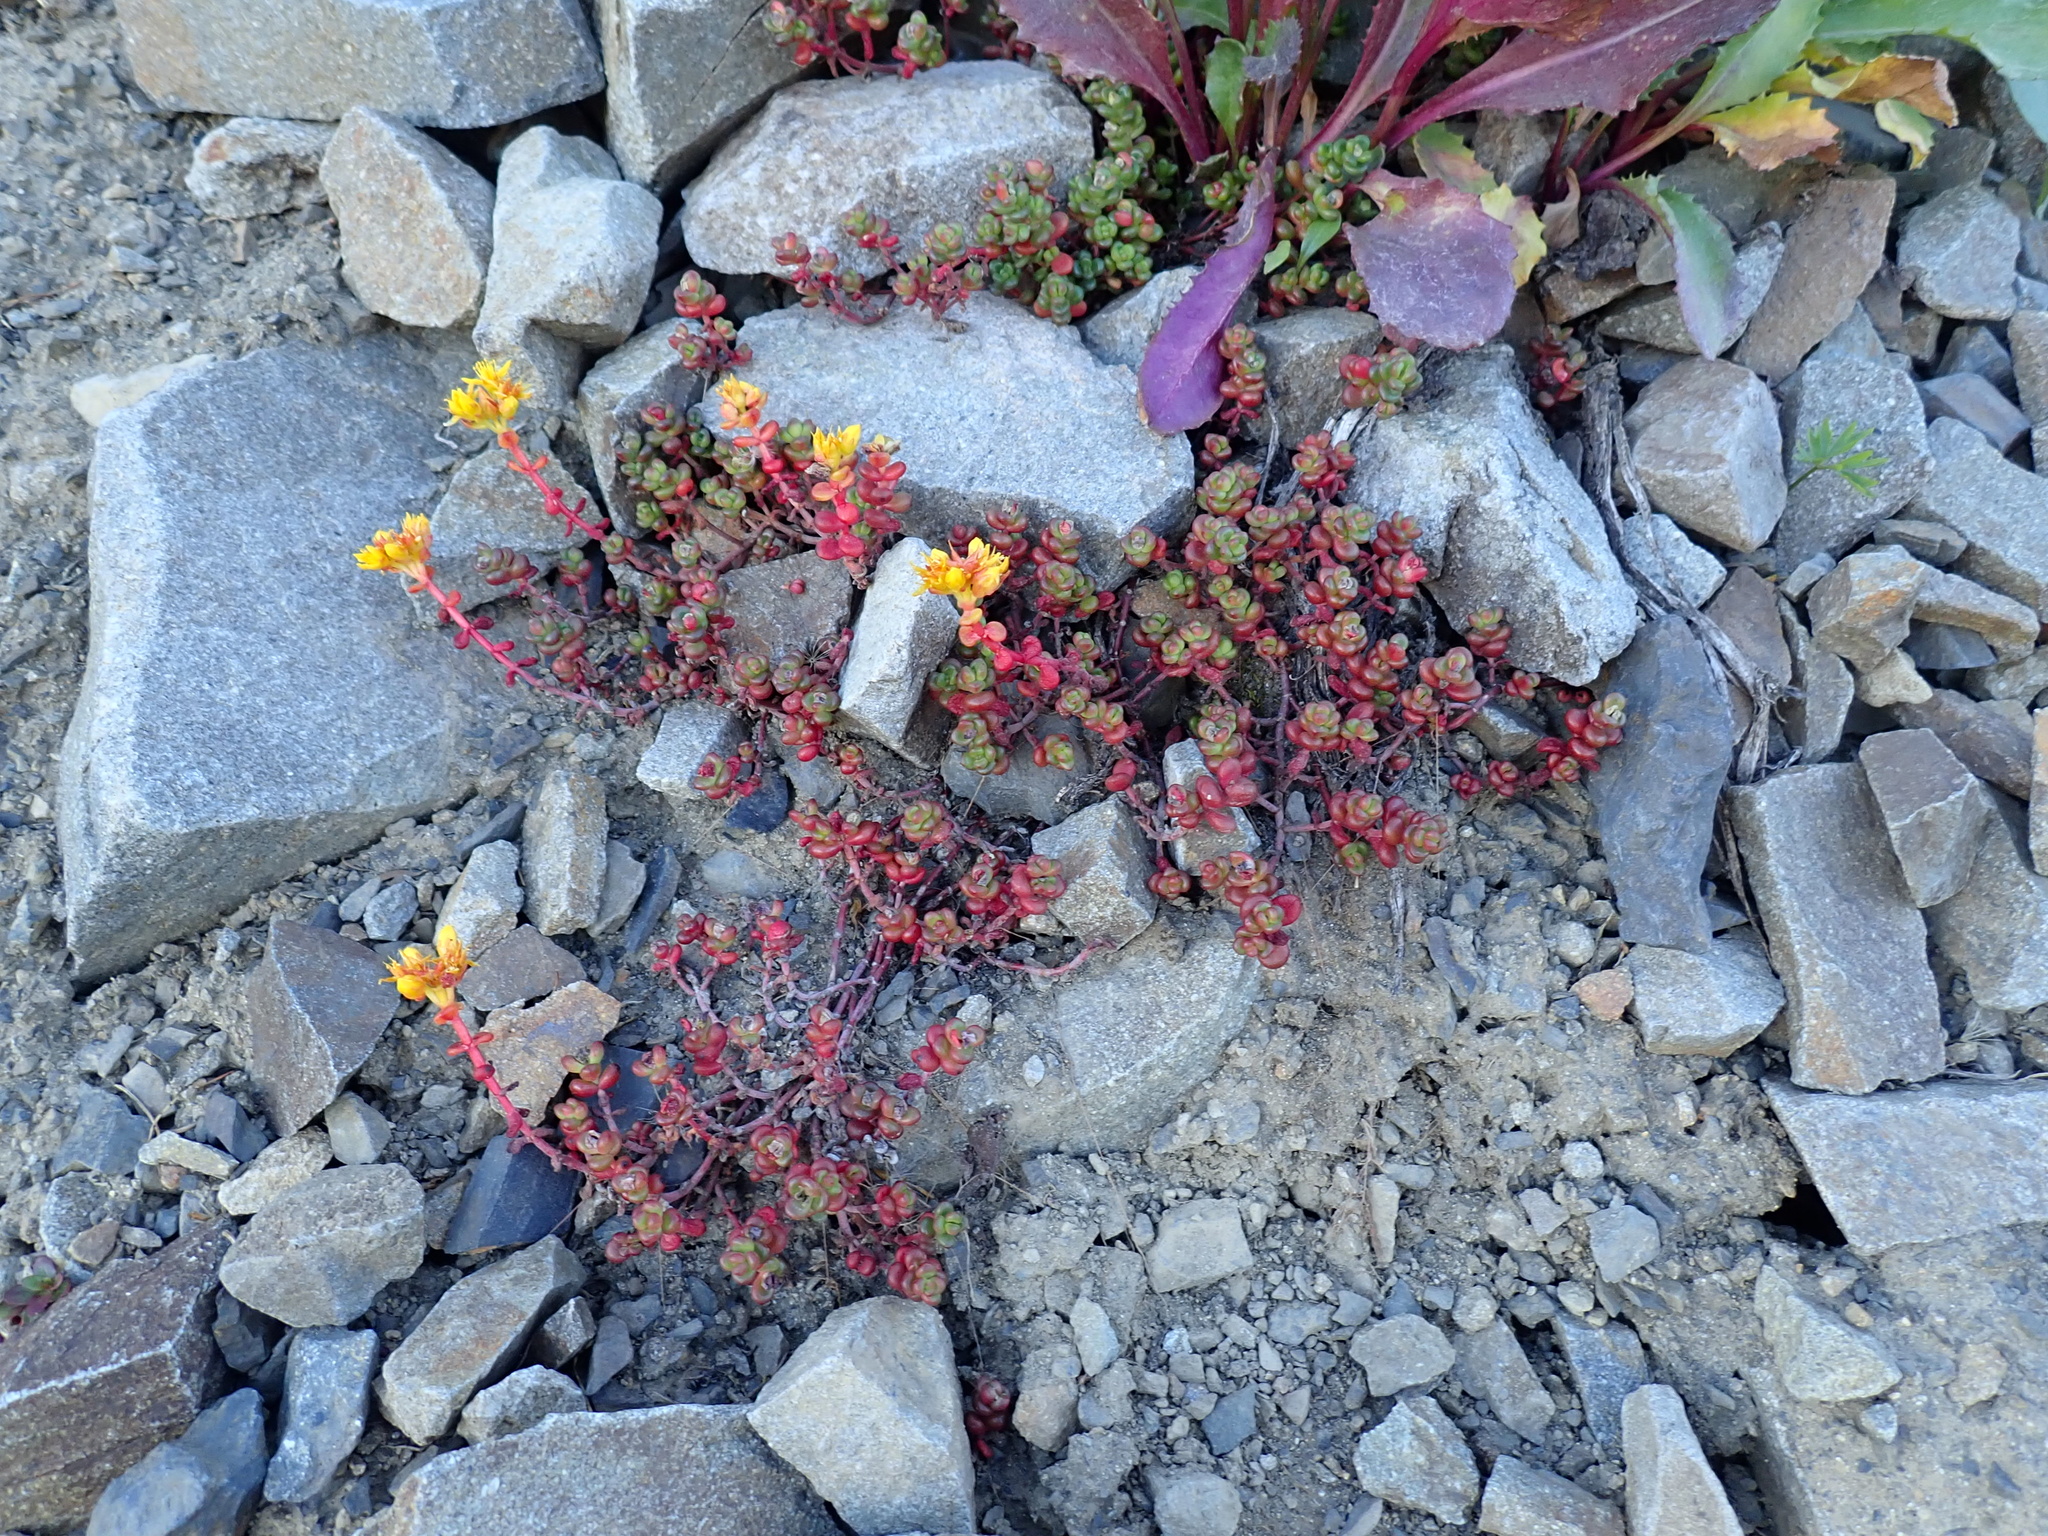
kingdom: Plantae
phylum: Tracheophyta
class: Magnoliopsida
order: Saxifragales
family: Crassulaceae
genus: Sedum
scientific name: Sedum divergens
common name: Cascade stonecrop
